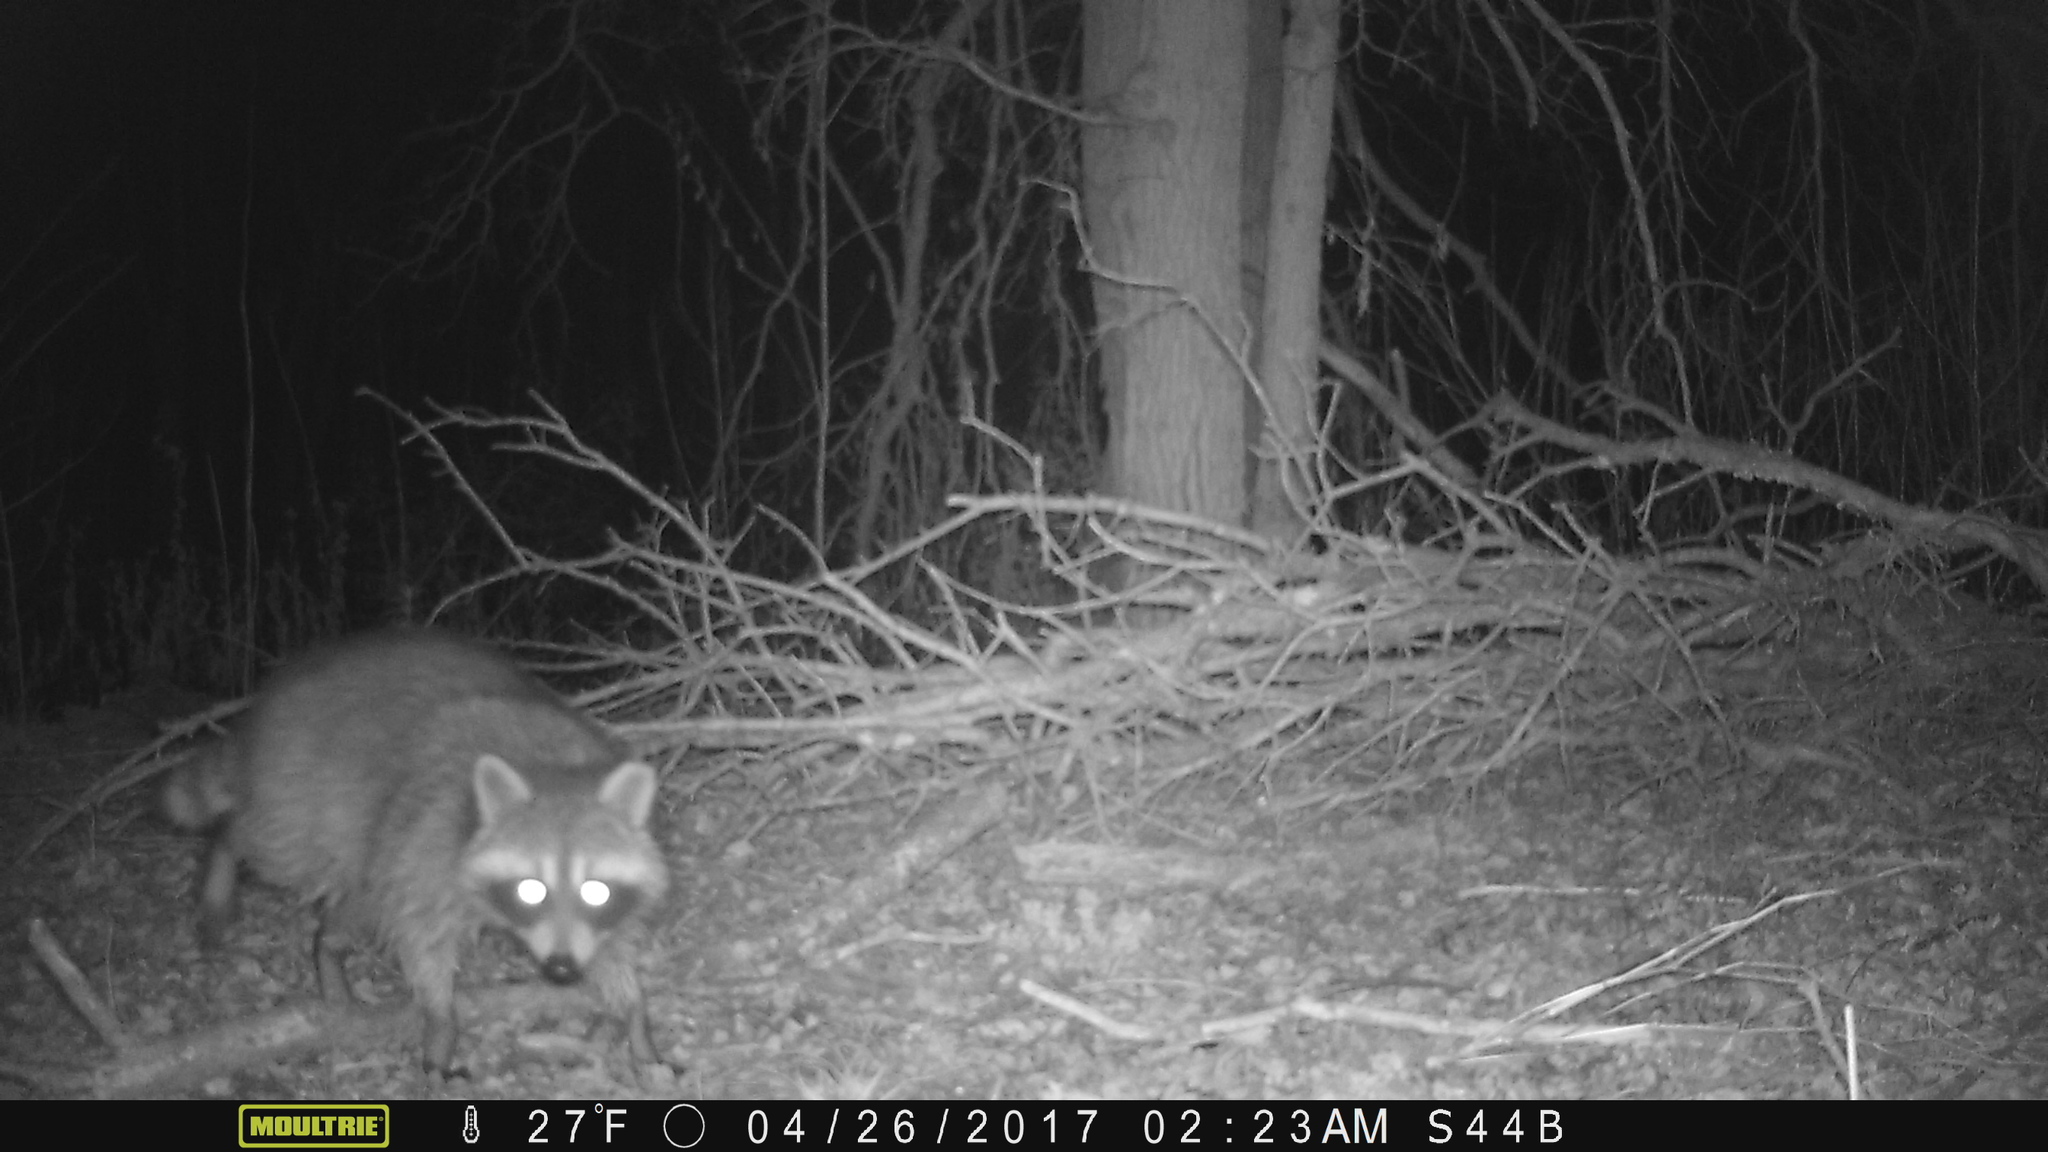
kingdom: Animalia
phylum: Chordata
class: Mammalia
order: Carnivora
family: Procyonidae
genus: Procyon
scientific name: Procyon lotor
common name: Raccoon
